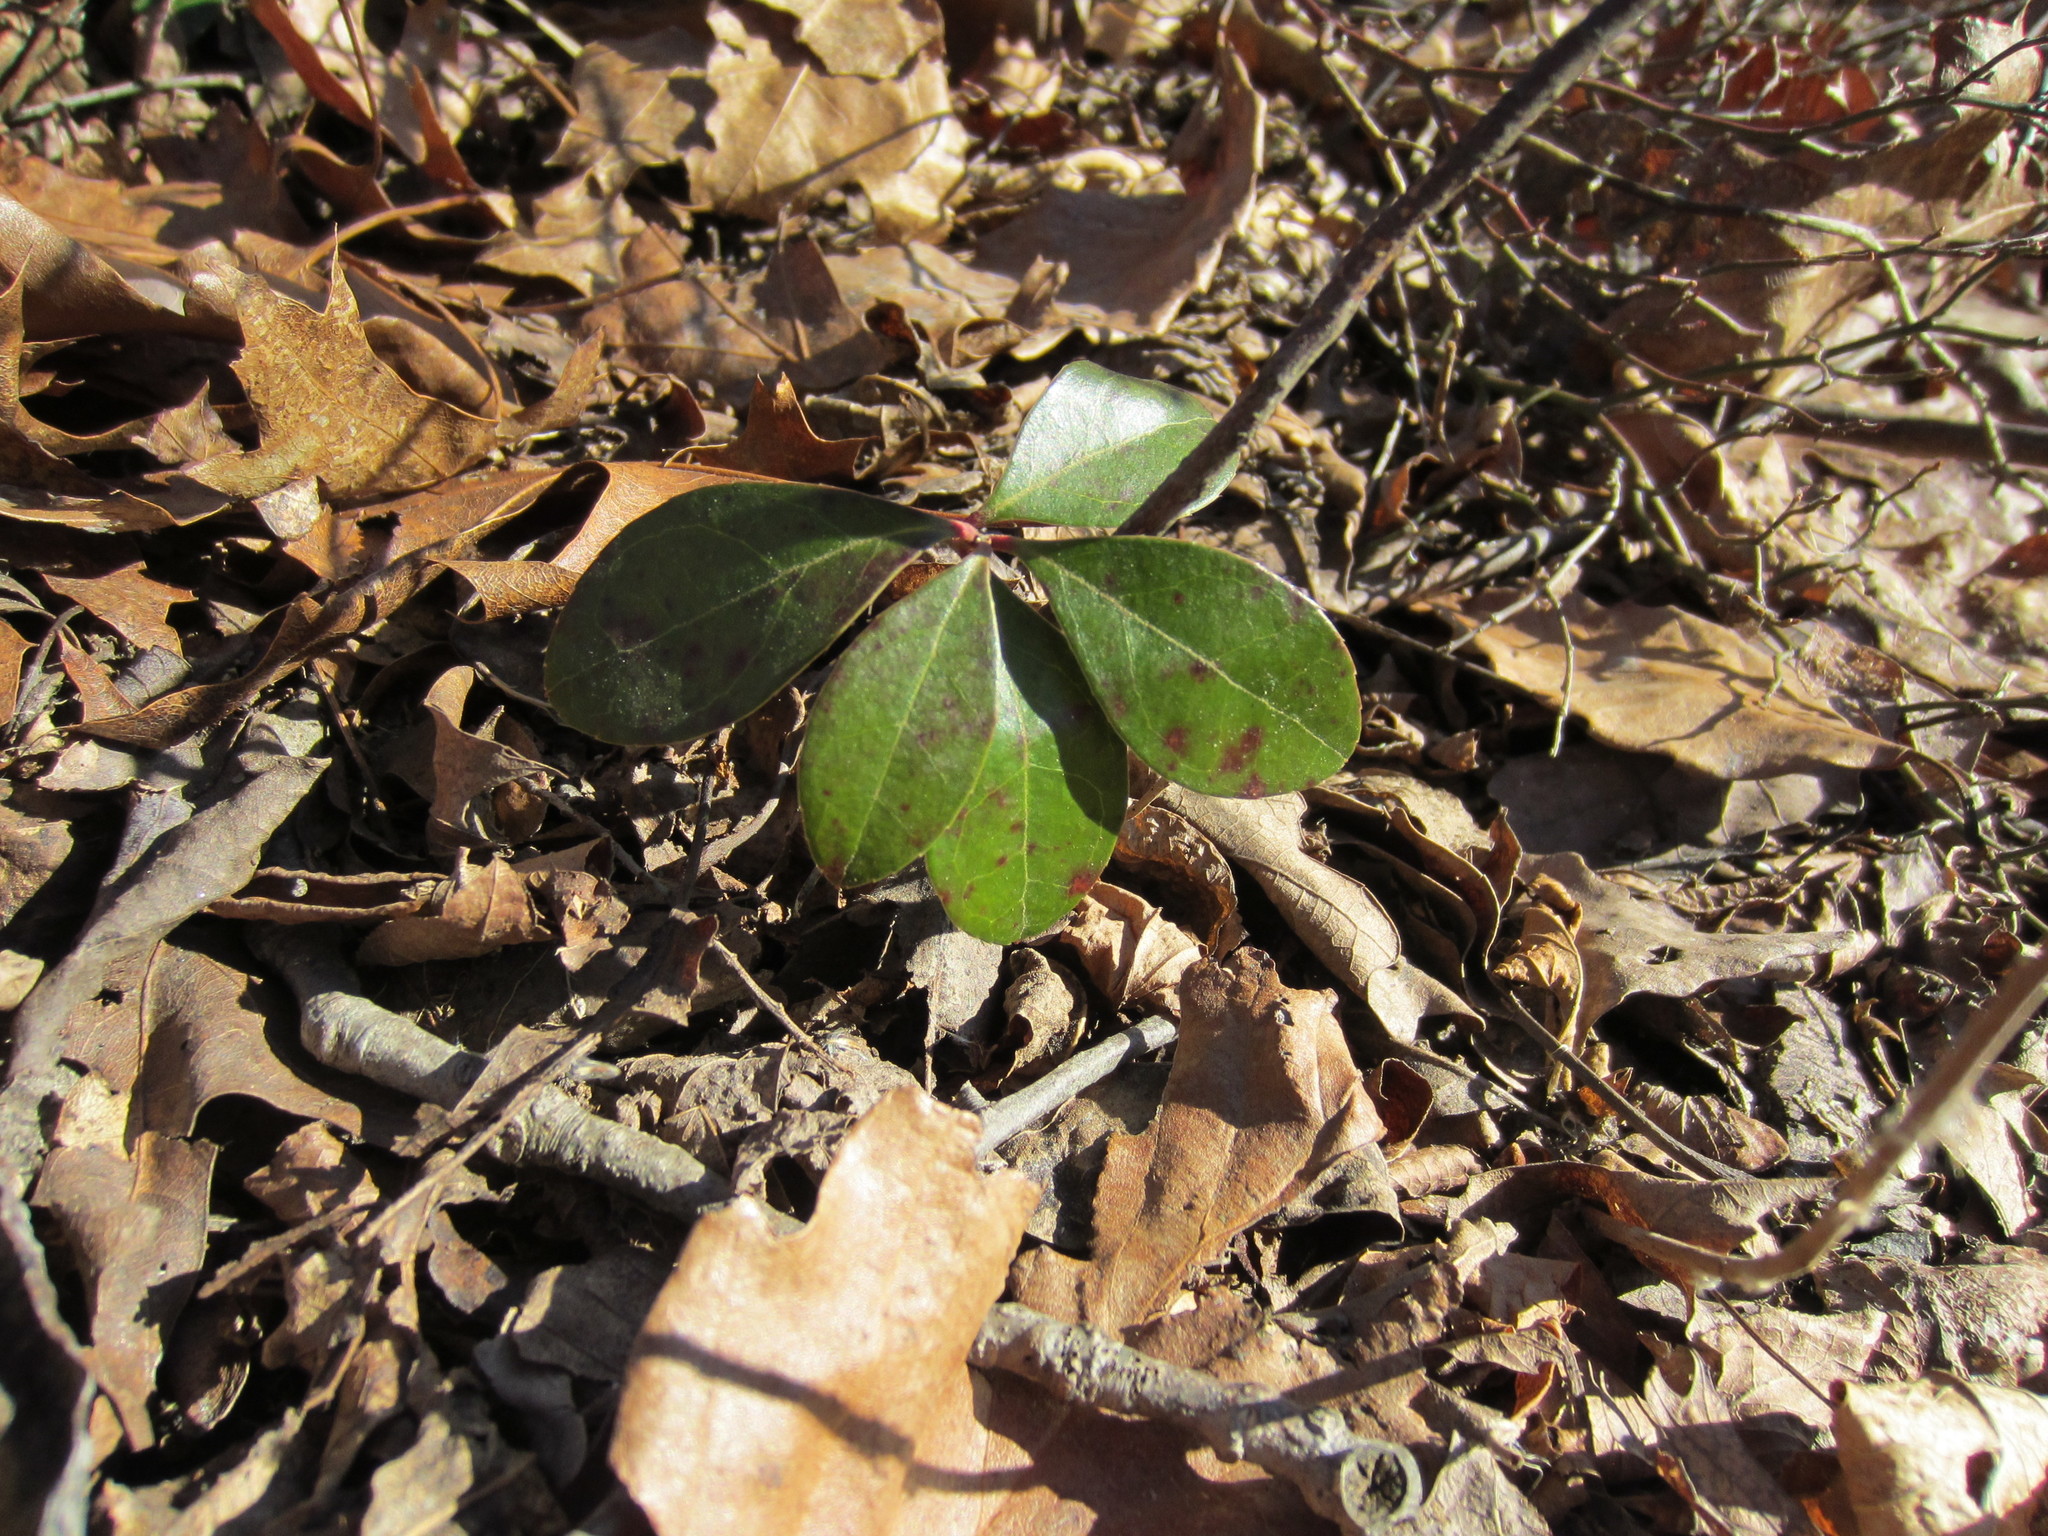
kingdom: Plantae
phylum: Tracheophyta
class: Magnoliopsida
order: Ericales
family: Ericaceae
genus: Gaultheria
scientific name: Gaultheria procumbens
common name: Checkerberry
